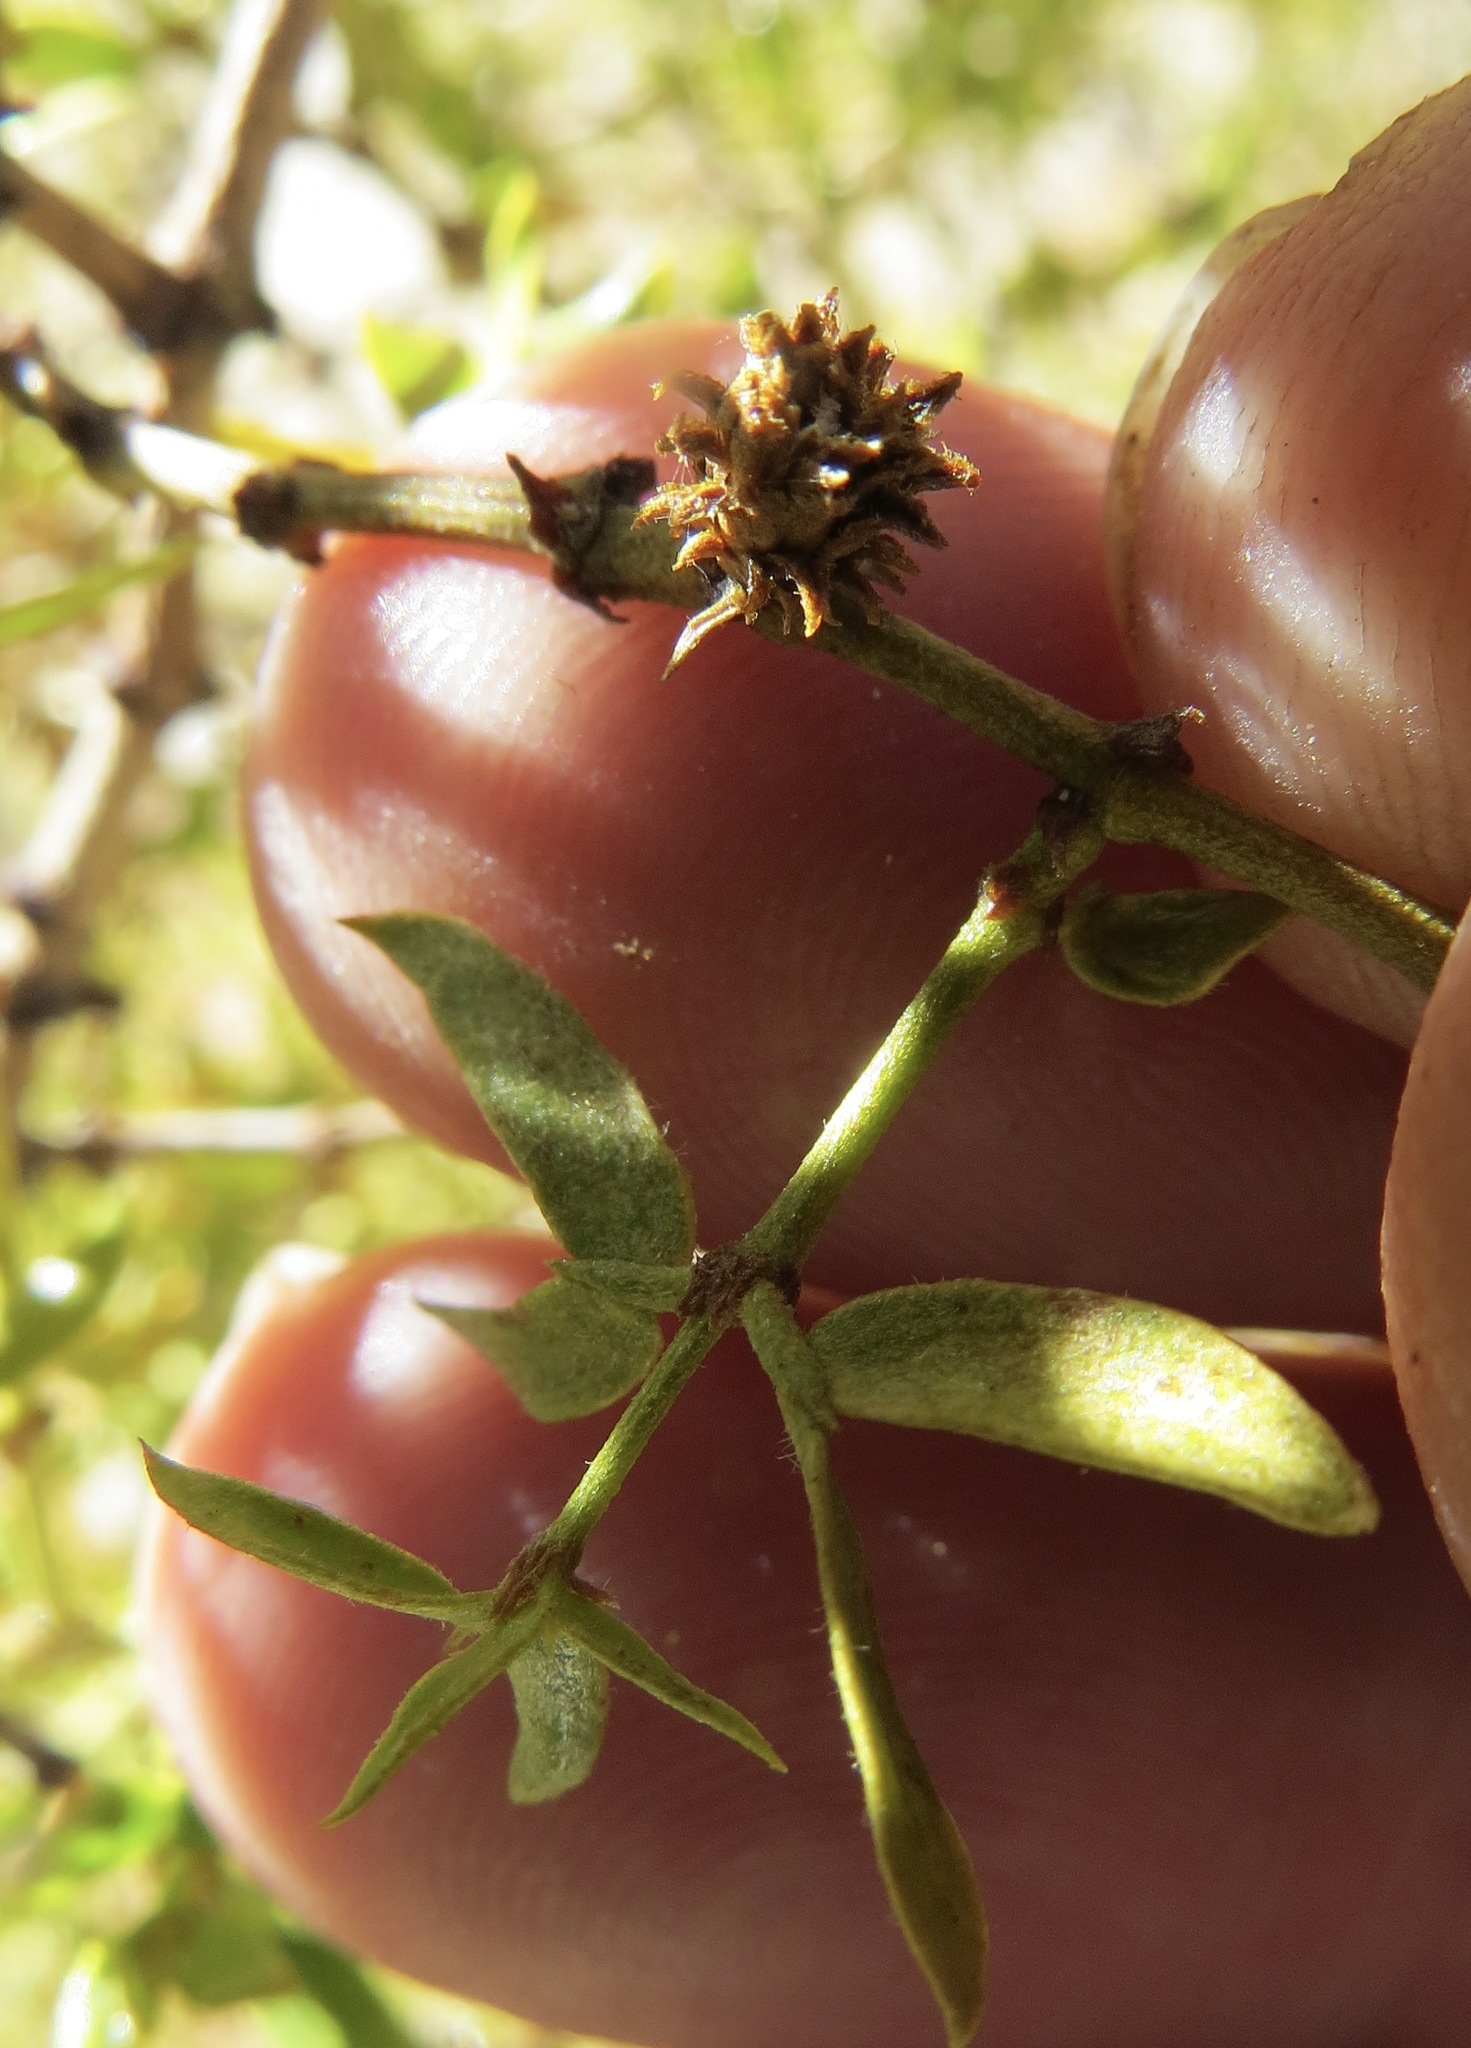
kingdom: Animalia
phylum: Arthropoda
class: Insecta
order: Diptera
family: Cecidomyiidae
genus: Asphondylia
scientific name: Asphondylia rosetta
